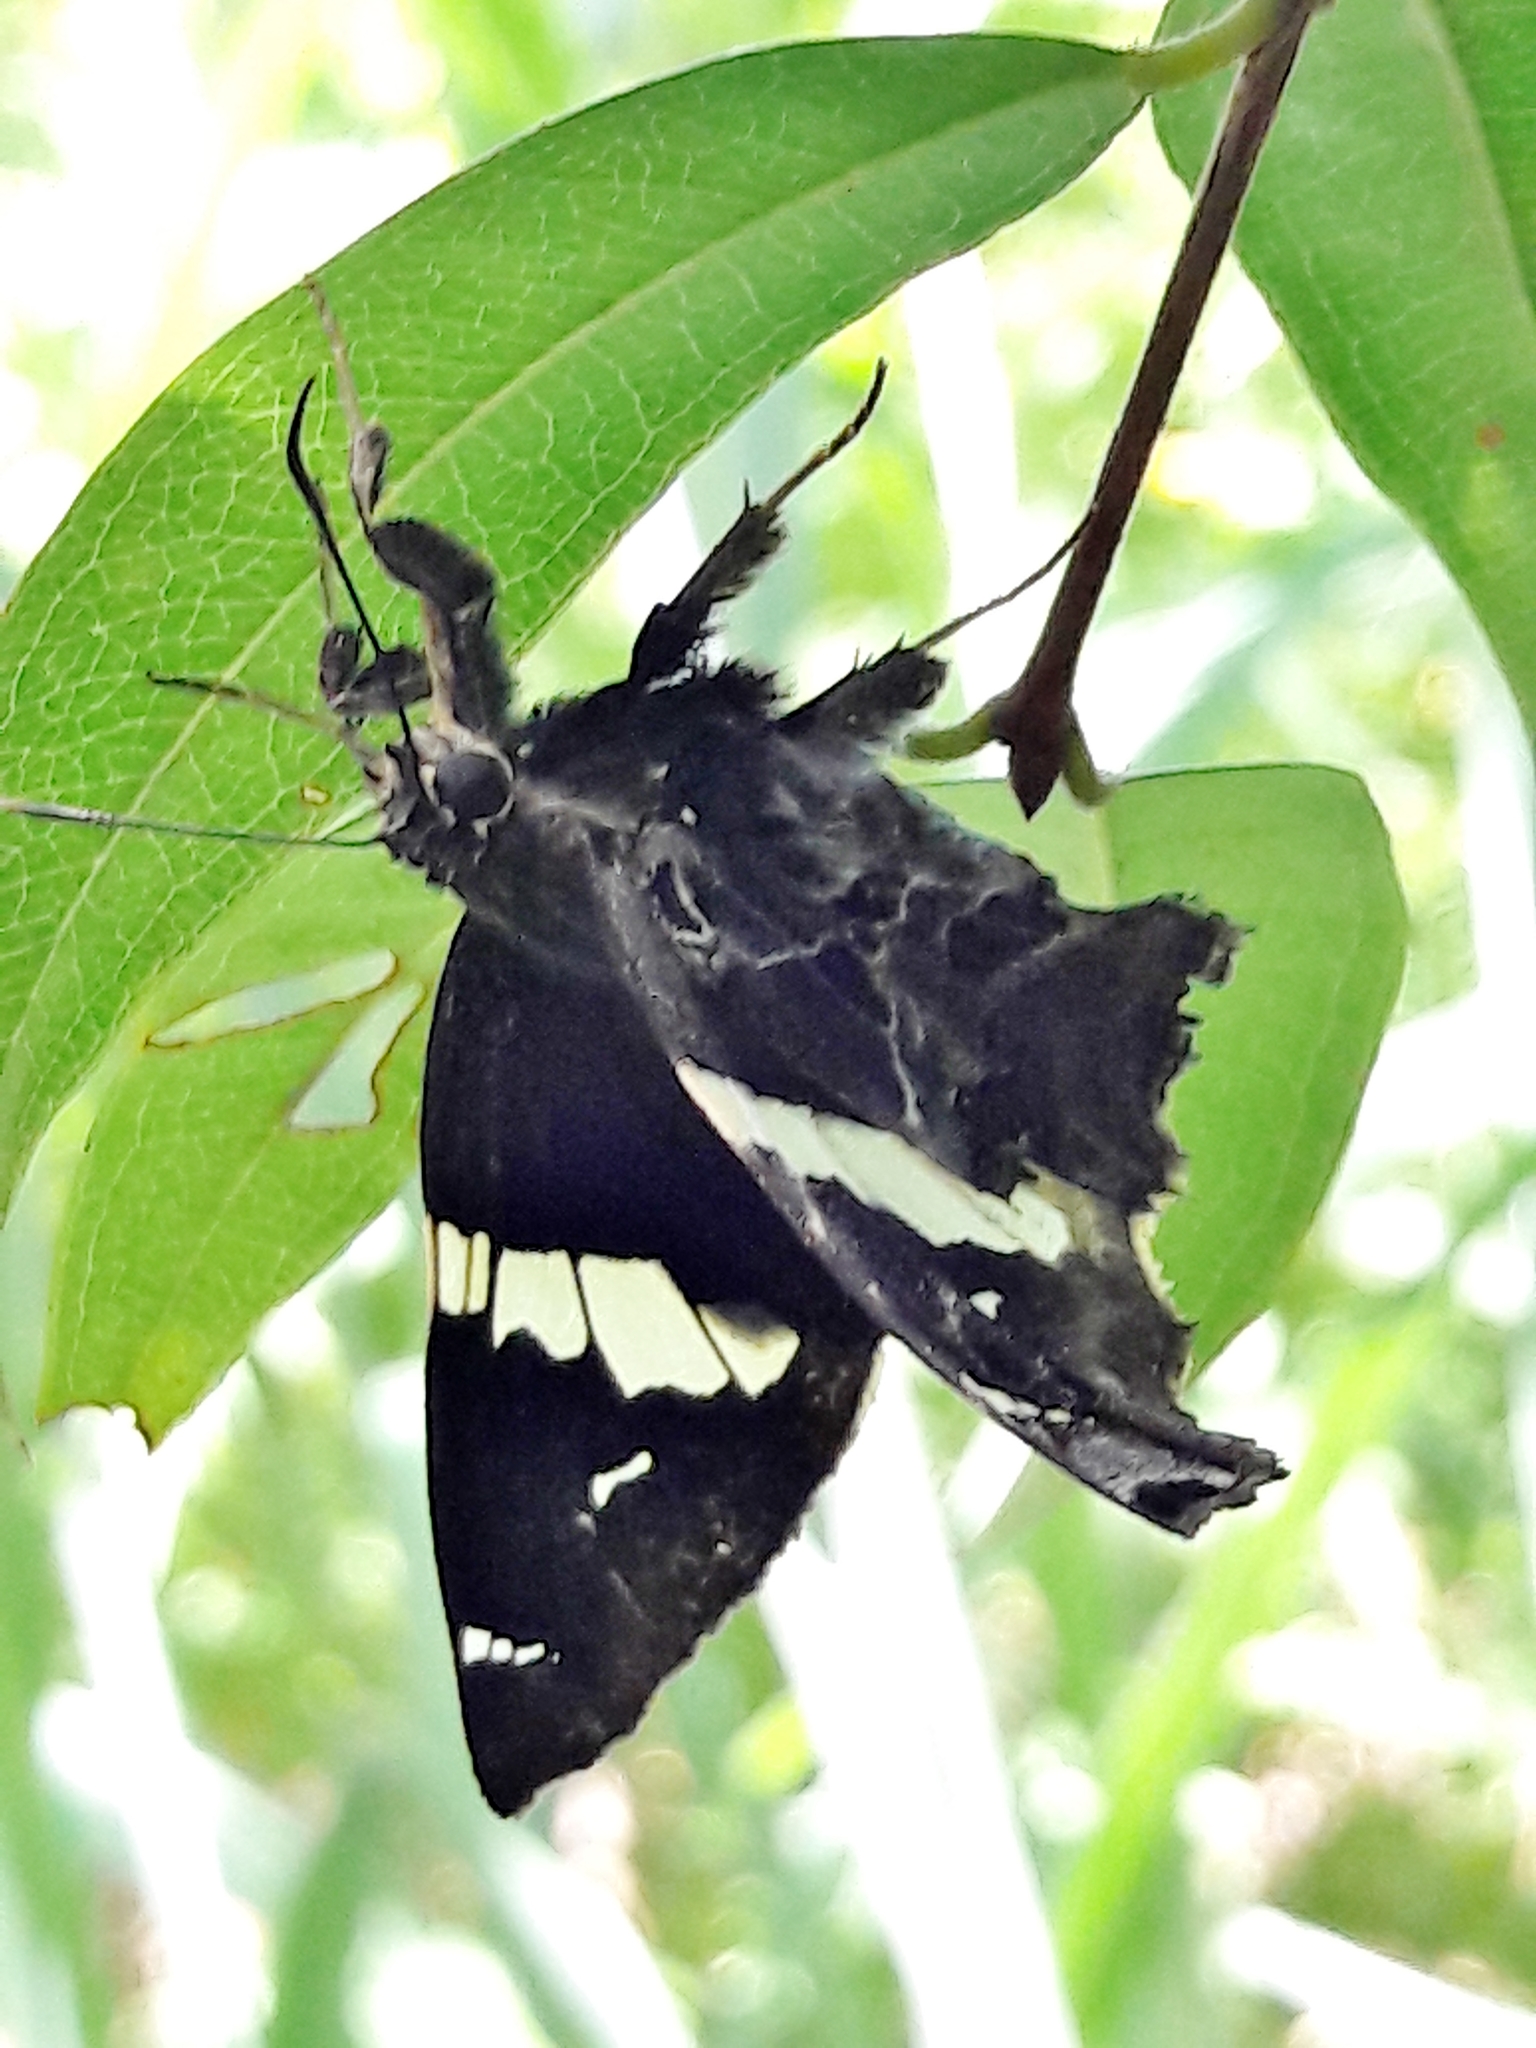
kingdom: Animalia
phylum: Arthropoda
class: Insecta
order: Lepidoptera
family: Hesperiidae
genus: Spathilepia
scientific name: Spathilepia clonius
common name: Falcate skipper
